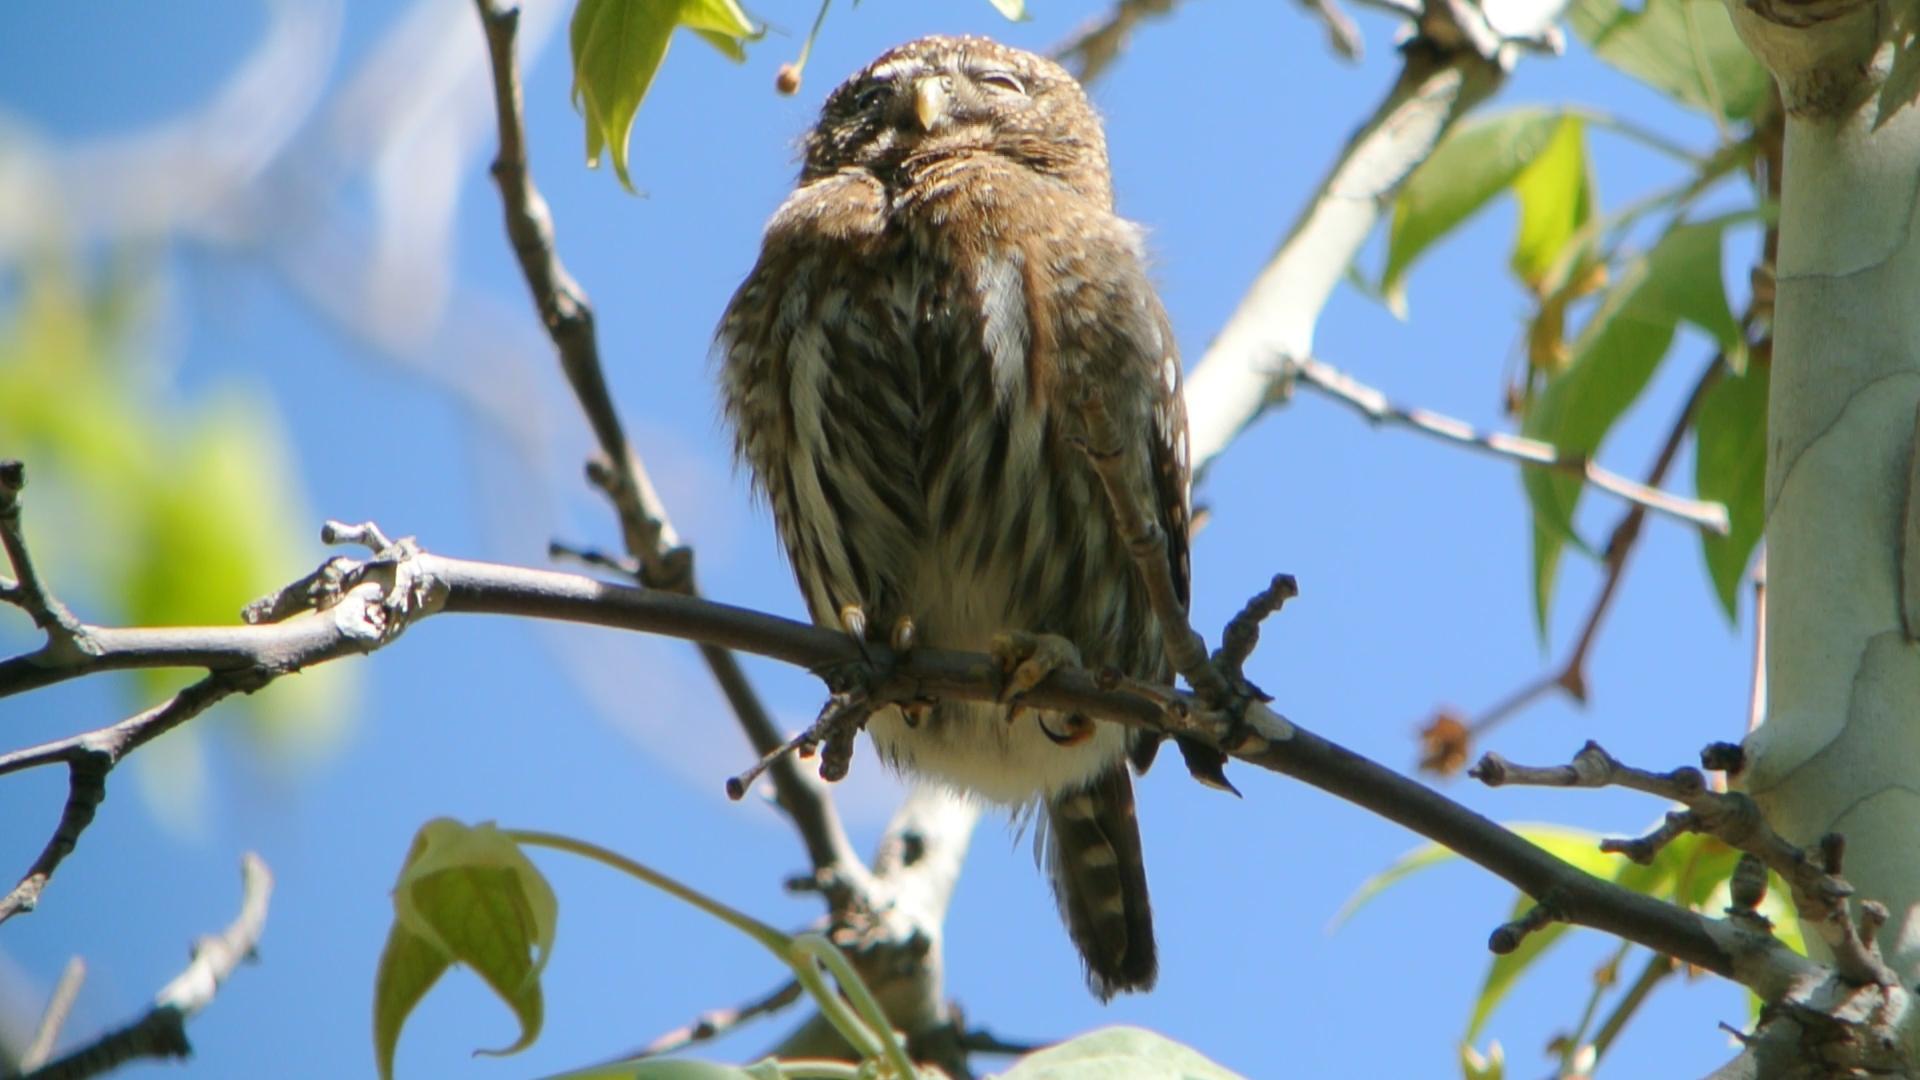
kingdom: Animalia
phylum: Chordata
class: Aves
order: Strigiformes
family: Strigidae
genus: Glaucidium
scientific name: Glaucidium gnoma
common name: Northern pygmy-owl
